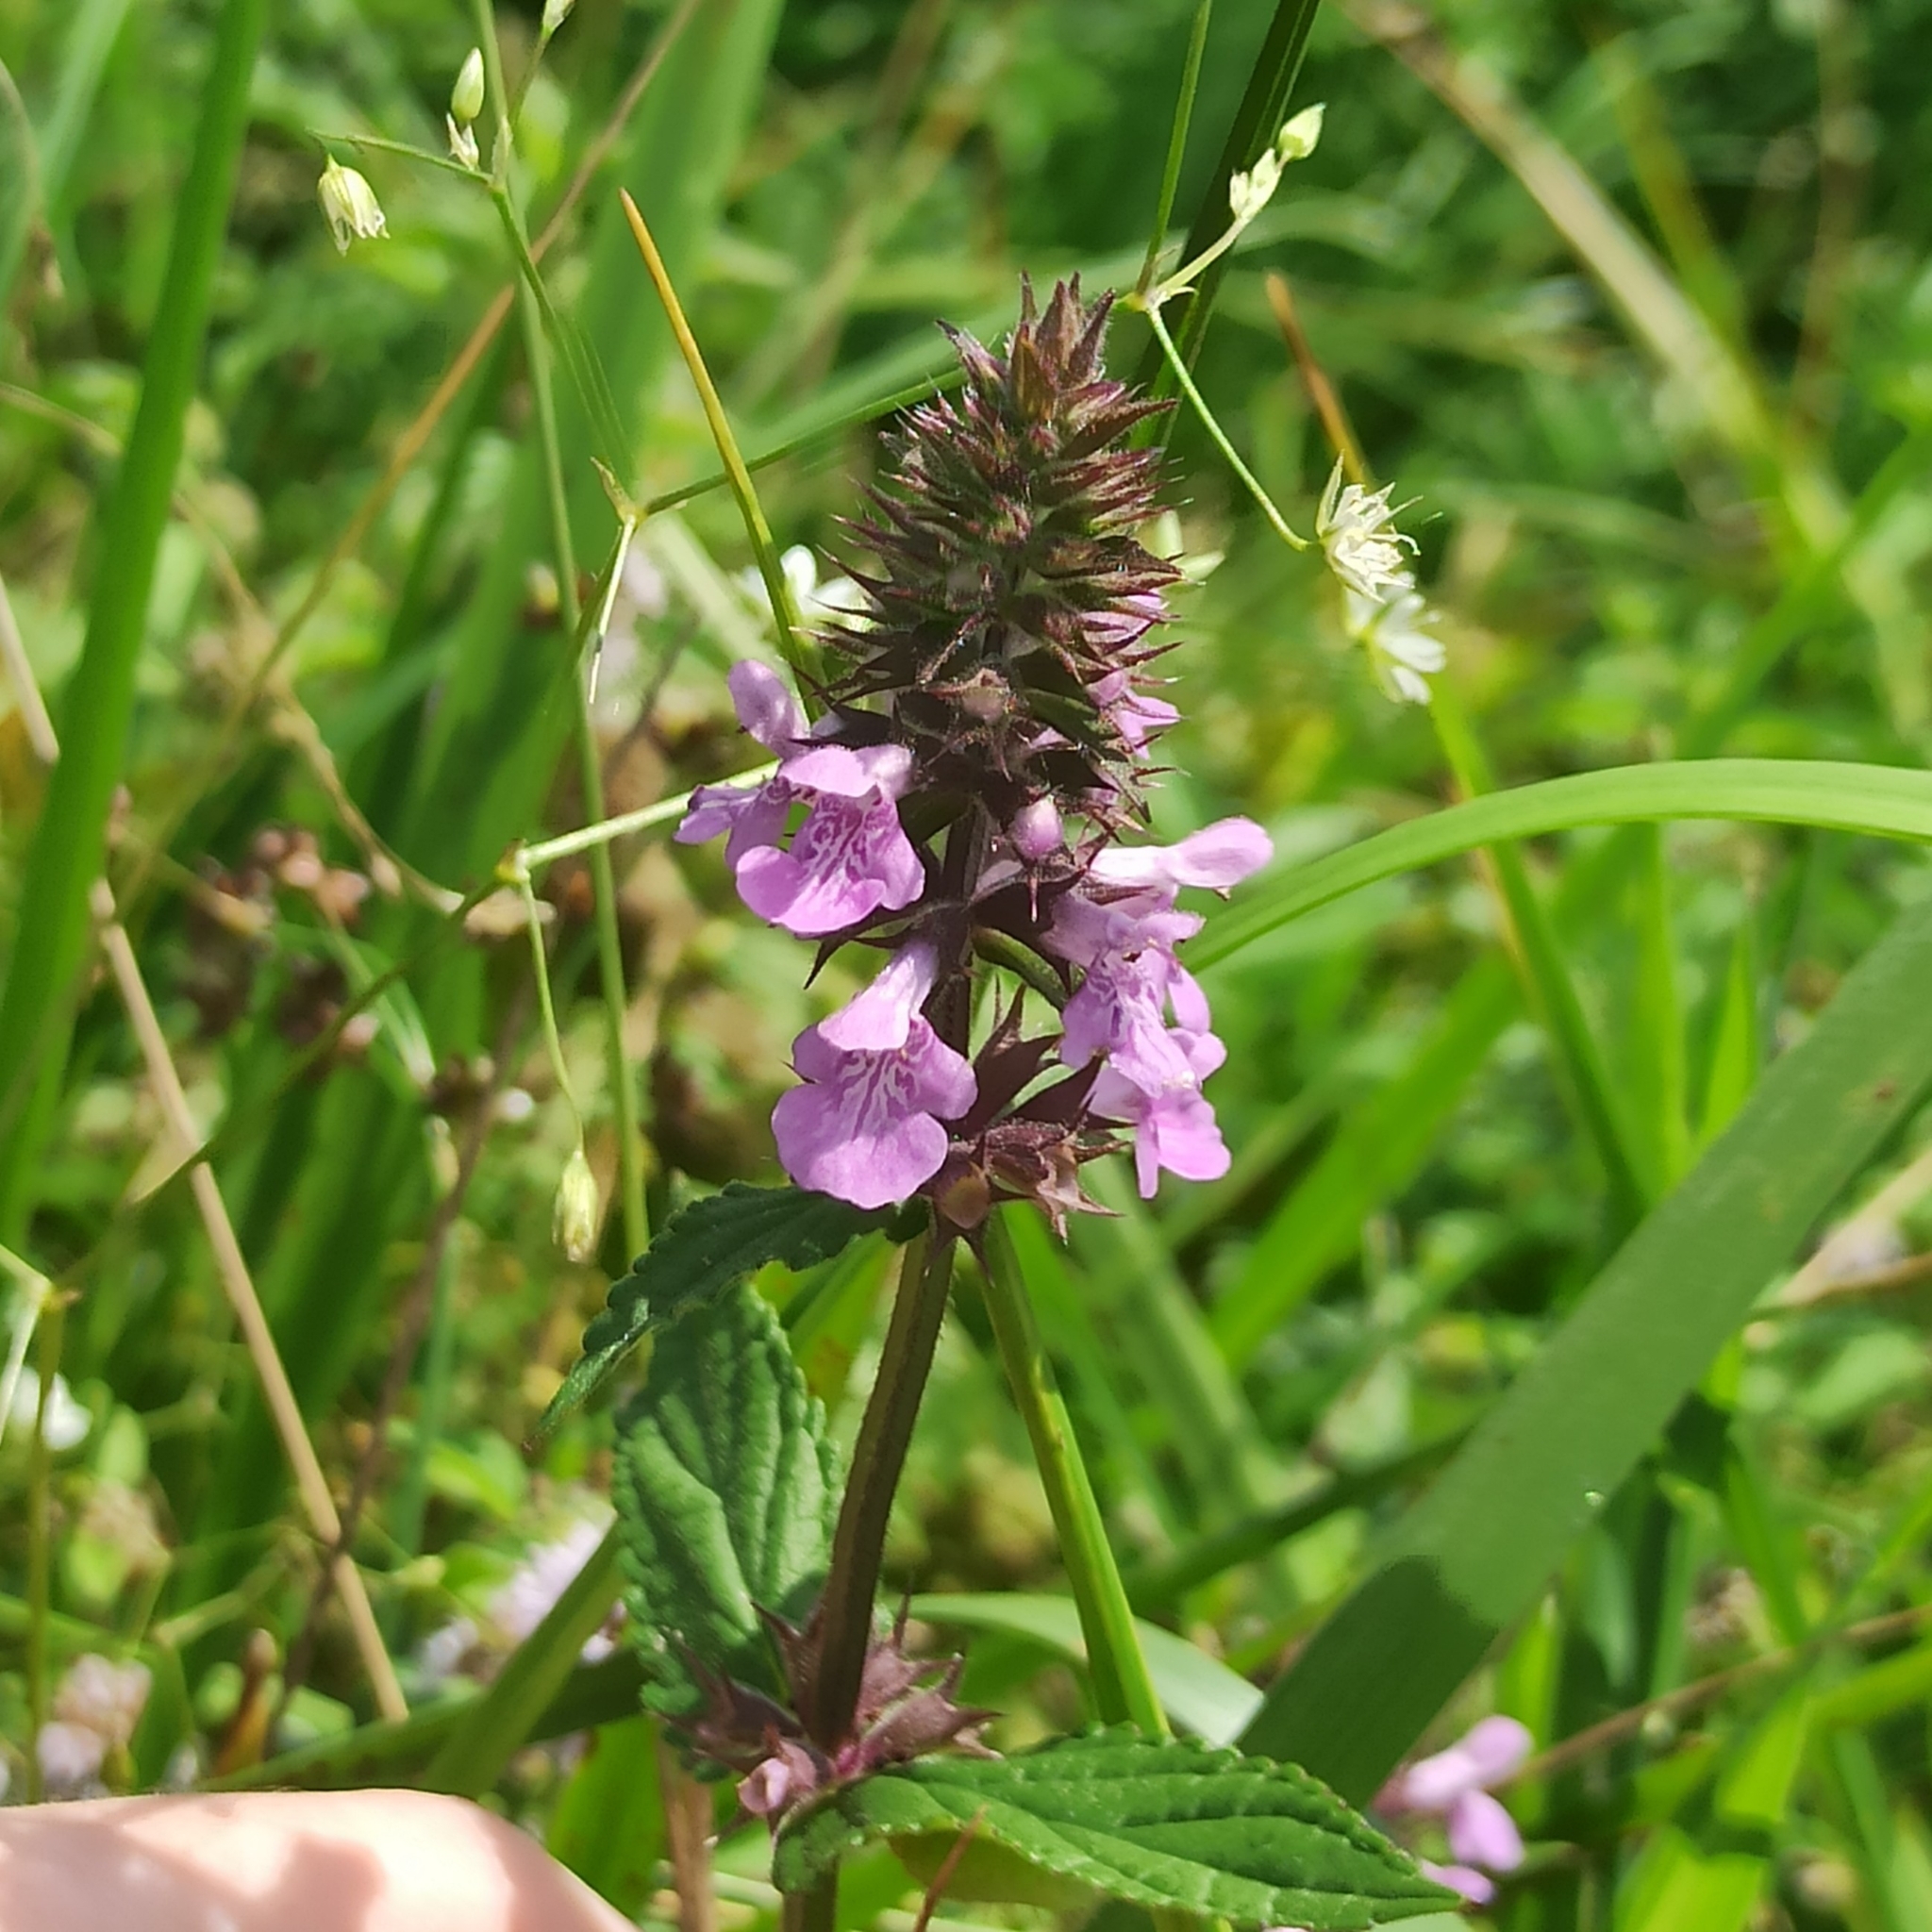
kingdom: Plantae
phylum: Tracheophyta
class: Magnoliopsida
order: Lamiales
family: Lamiaceae
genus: Stachys
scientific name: Stachys palustris
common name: Marsh woundwort
